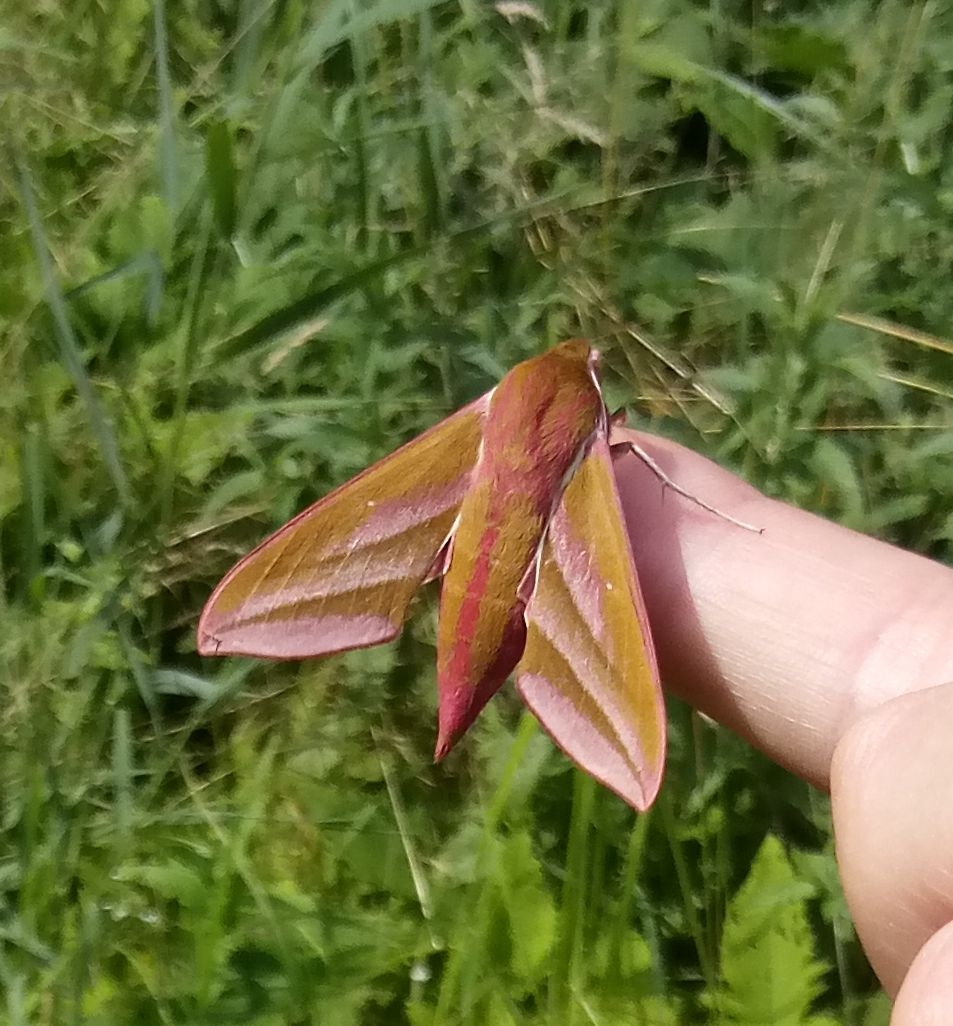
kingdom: Animalia
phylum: Arthropoda
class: Insecta
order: Lepidoptera
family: Sphingidae
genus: Deilephila
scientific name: Deilephila elpenor
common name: Elephant hawk-moth
